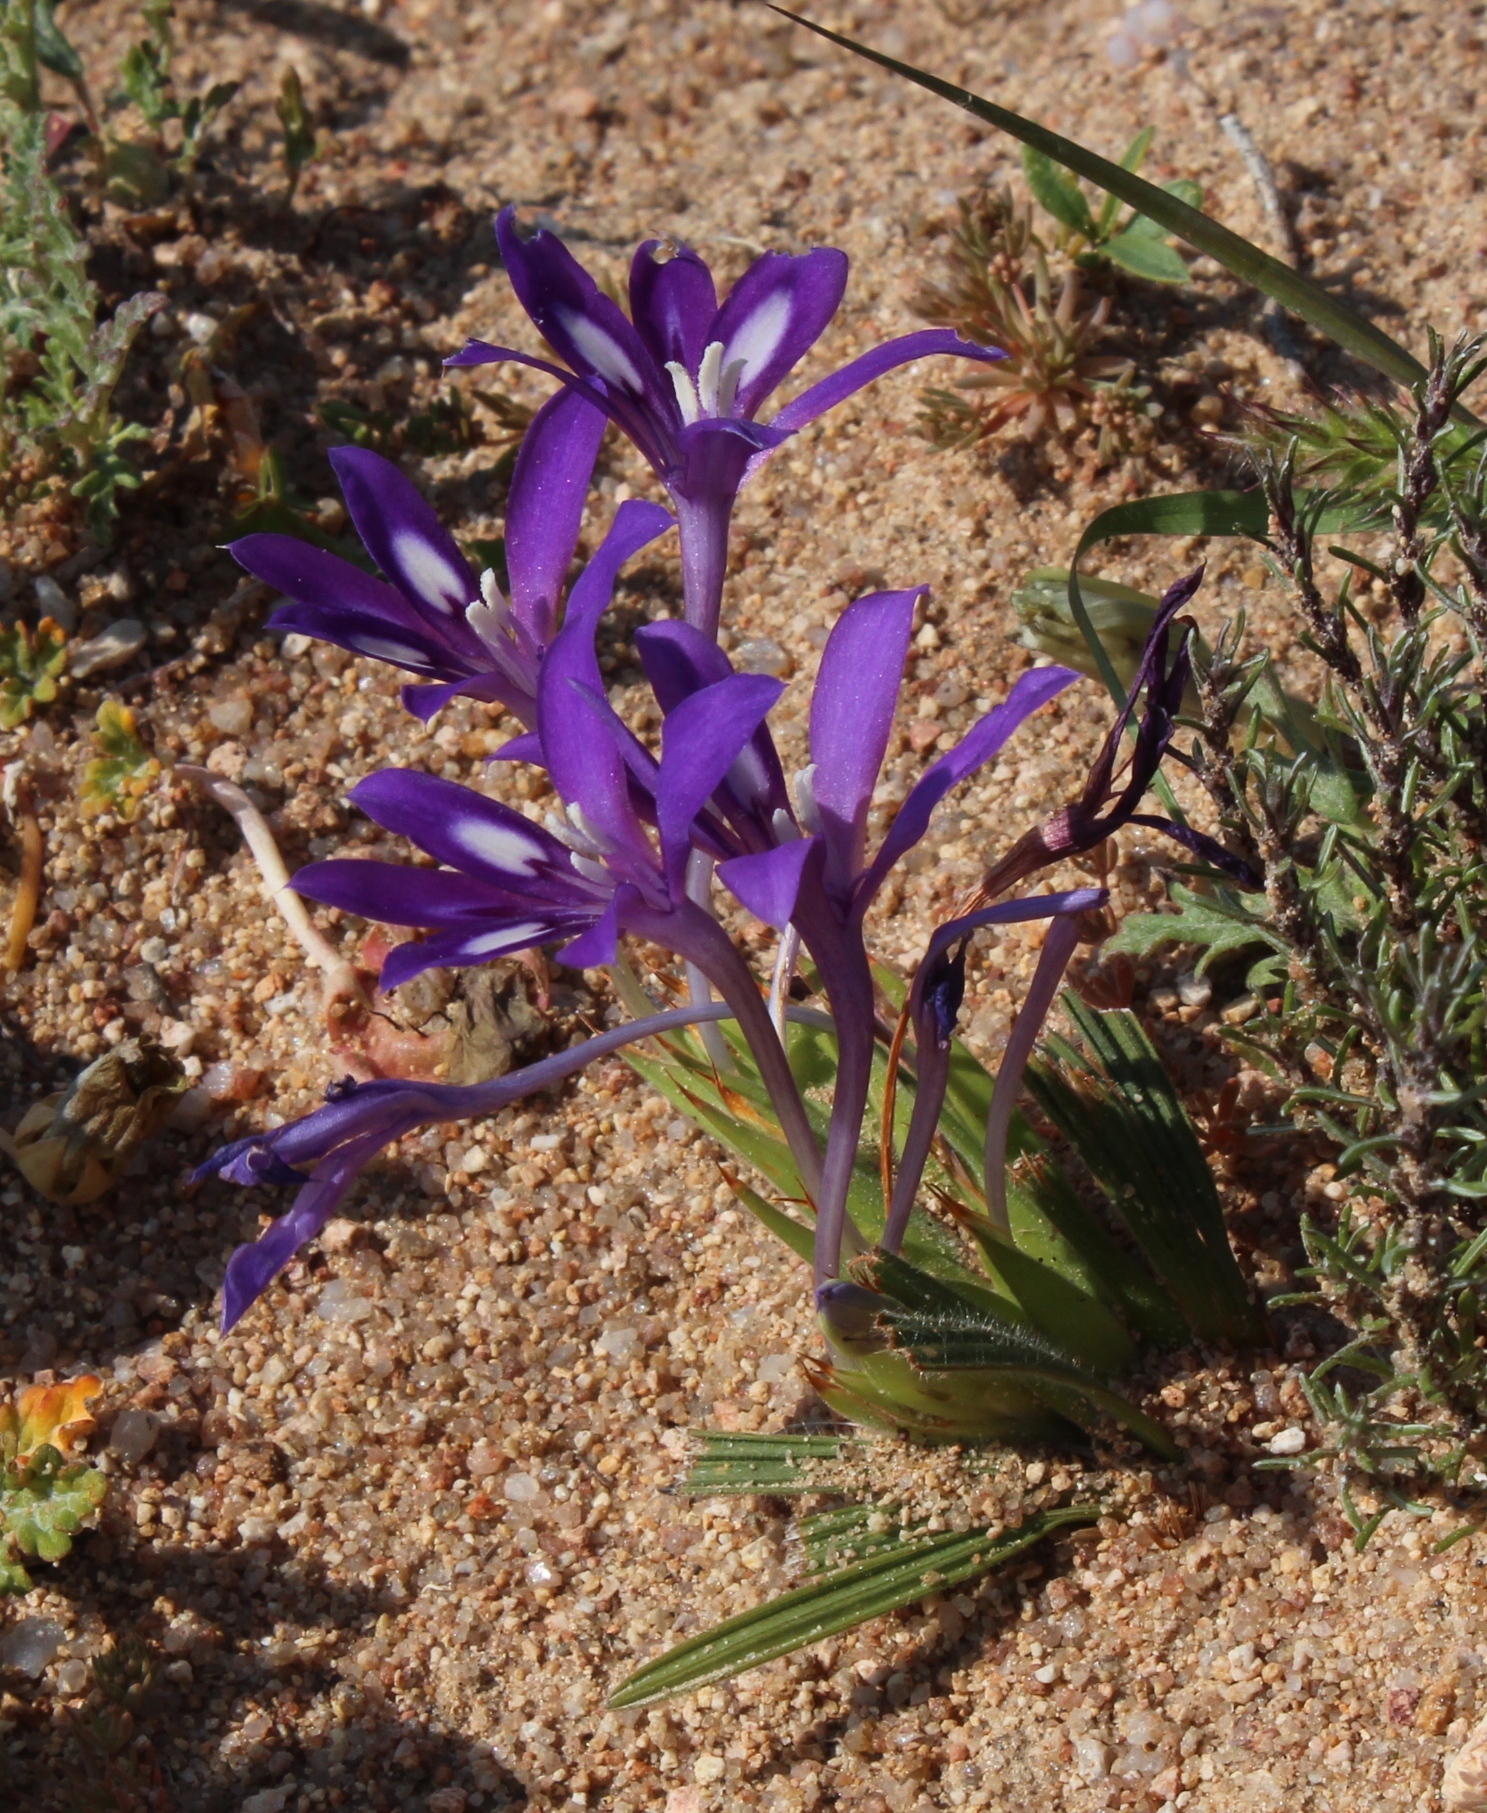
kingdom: Plantae
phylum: Tracheophyta
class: Liliopsida
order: Asparagales
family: Iridaceae
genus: Babiana
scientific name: Babiana pubescens
